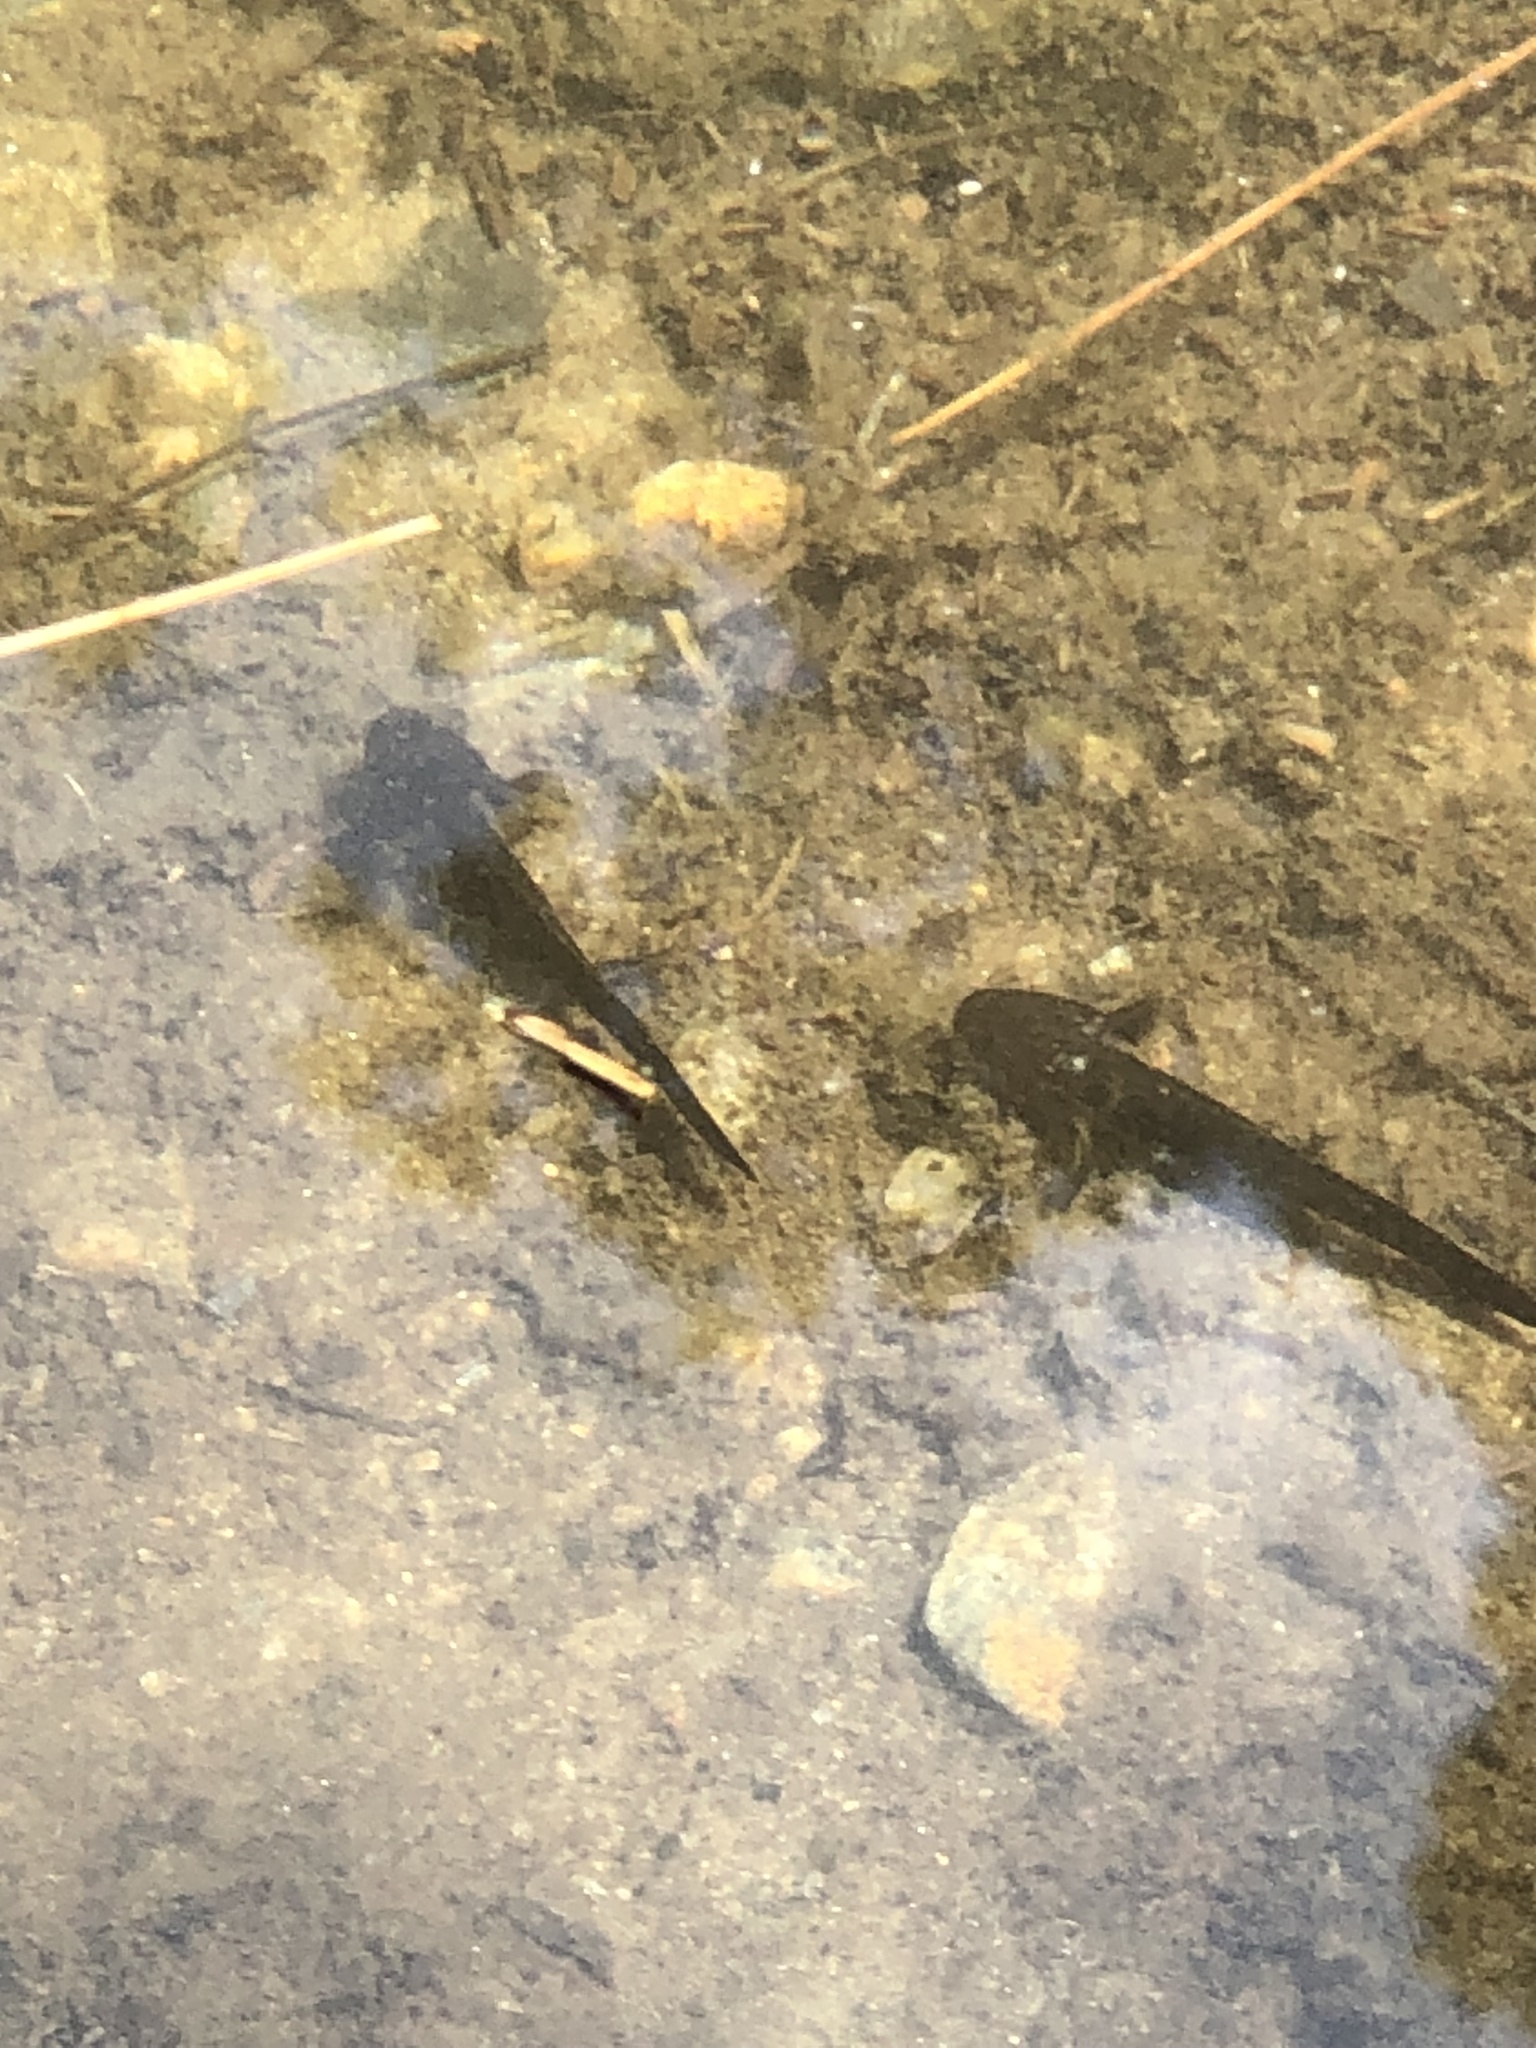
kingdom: Animalia
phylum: Chordata
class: Amphibia
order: Caudata
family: Ambystomatidae
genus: Ambystoma
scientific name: Ambystoma opacum
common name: Marbled salamander
